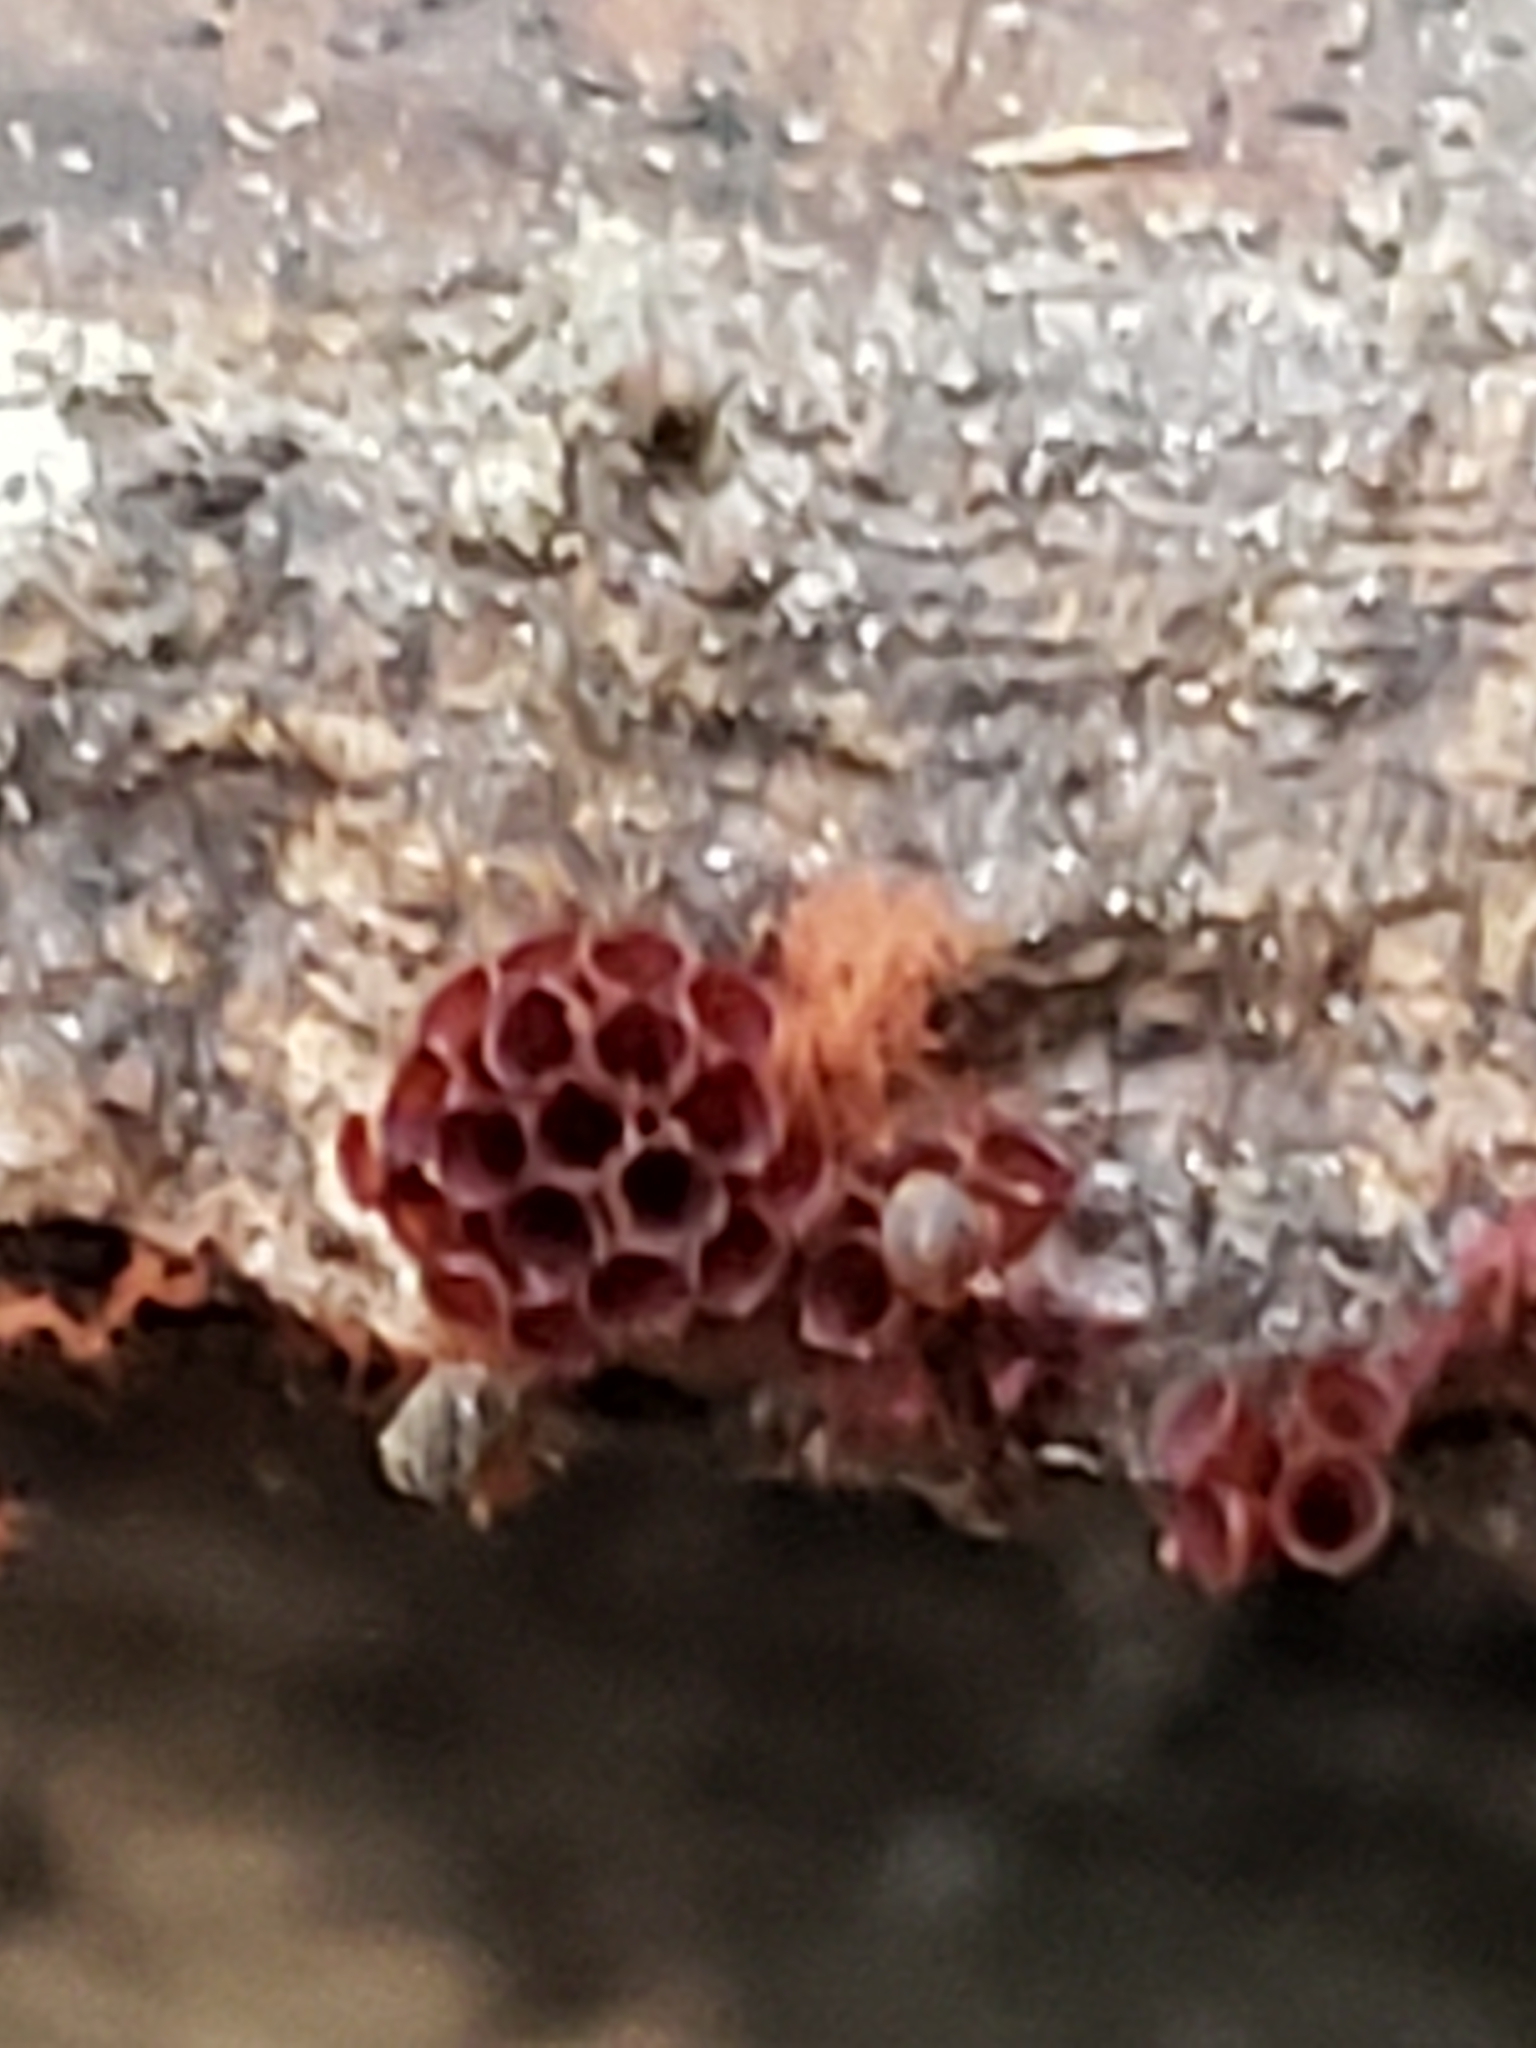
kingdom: Protozoa
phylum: Mycetozoa
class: Myxomycetes
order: Trichiales
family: Trichiaceae
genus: Metatrichia
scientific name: Metatrichia vesparia
